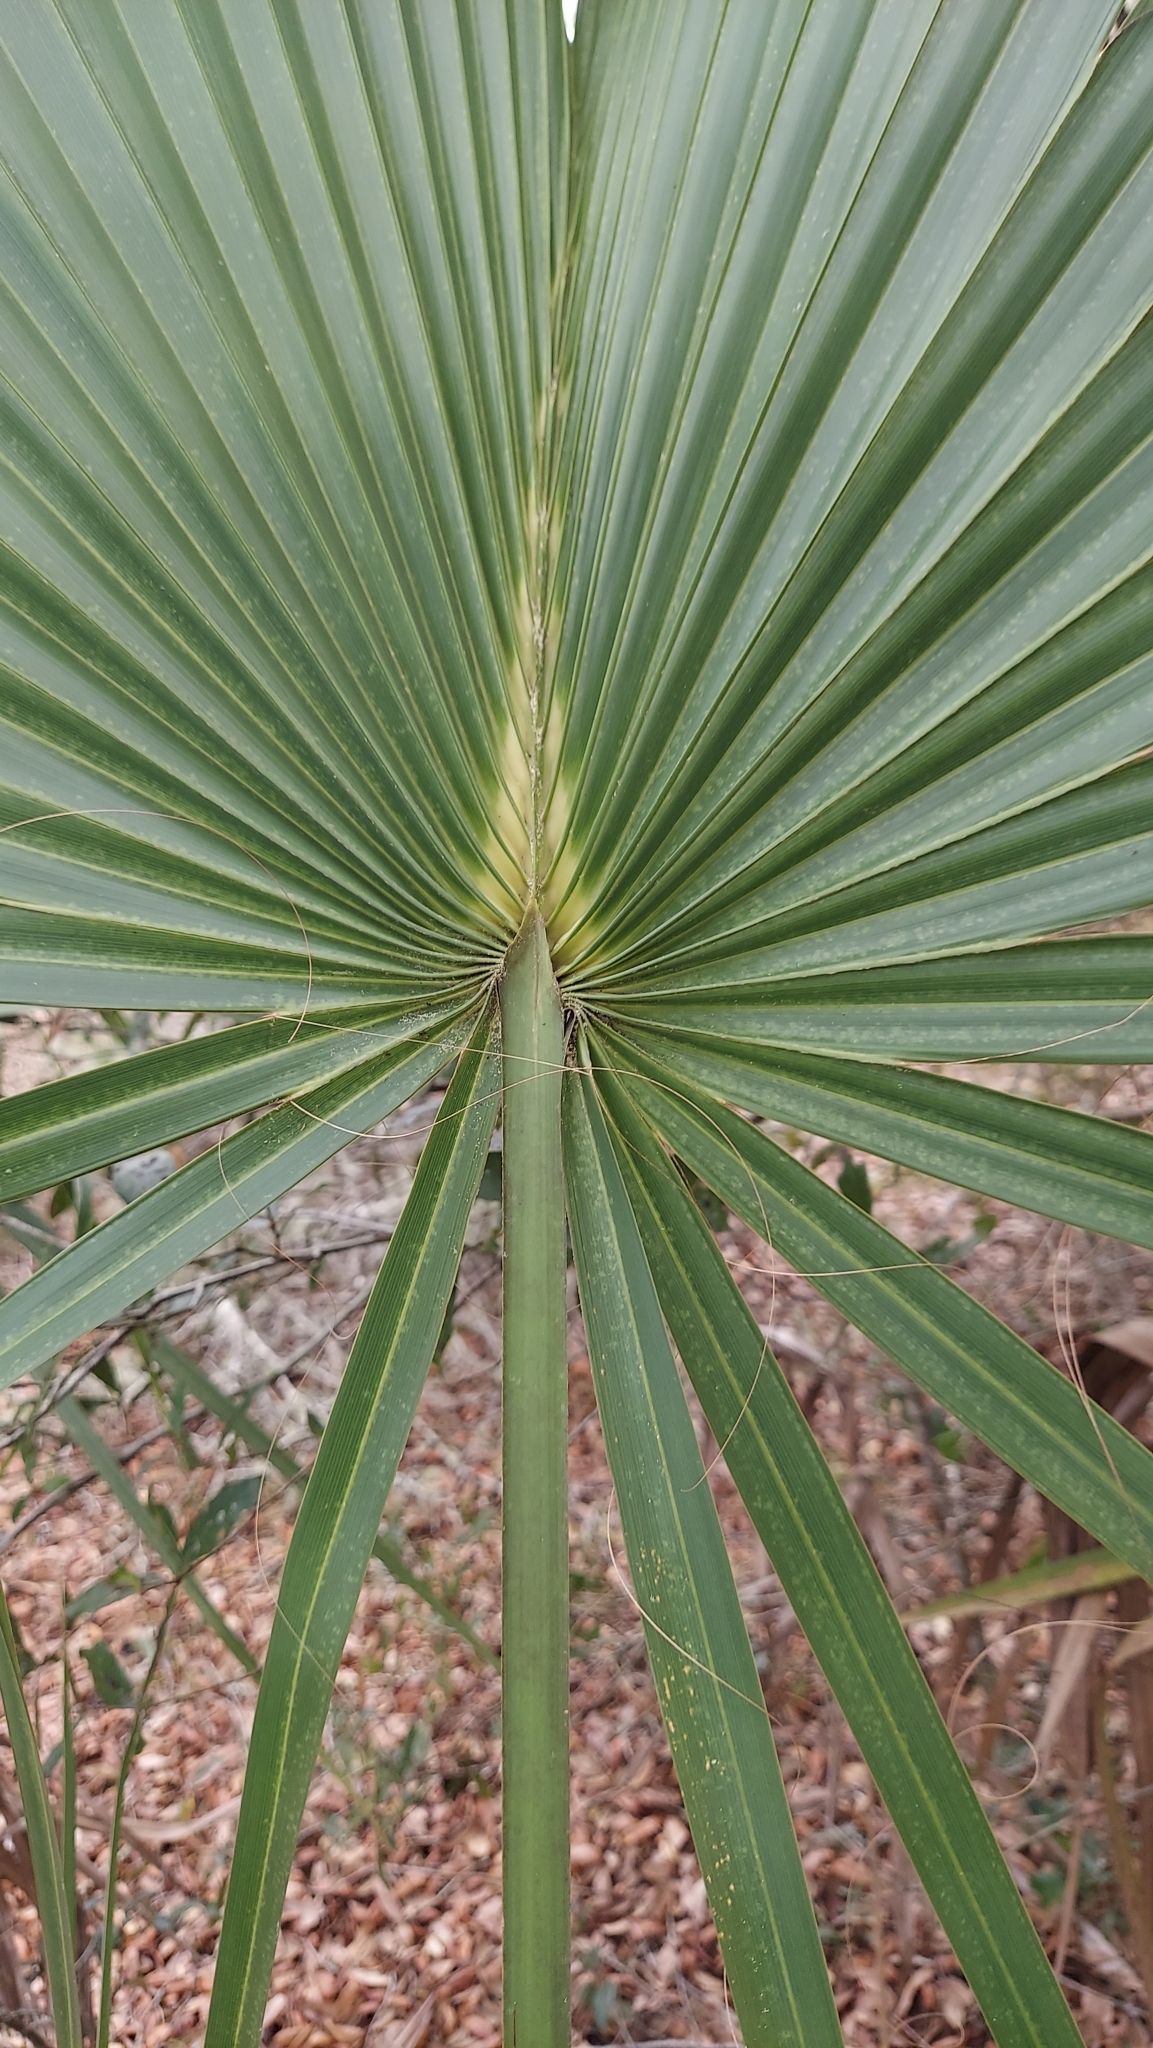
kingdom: Plantae
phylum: Tracheophyta
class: Liliopsida
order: Arecales
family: Arecaceae
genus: Sabal
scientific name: Sabal palmetto
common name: Blue palmetto
